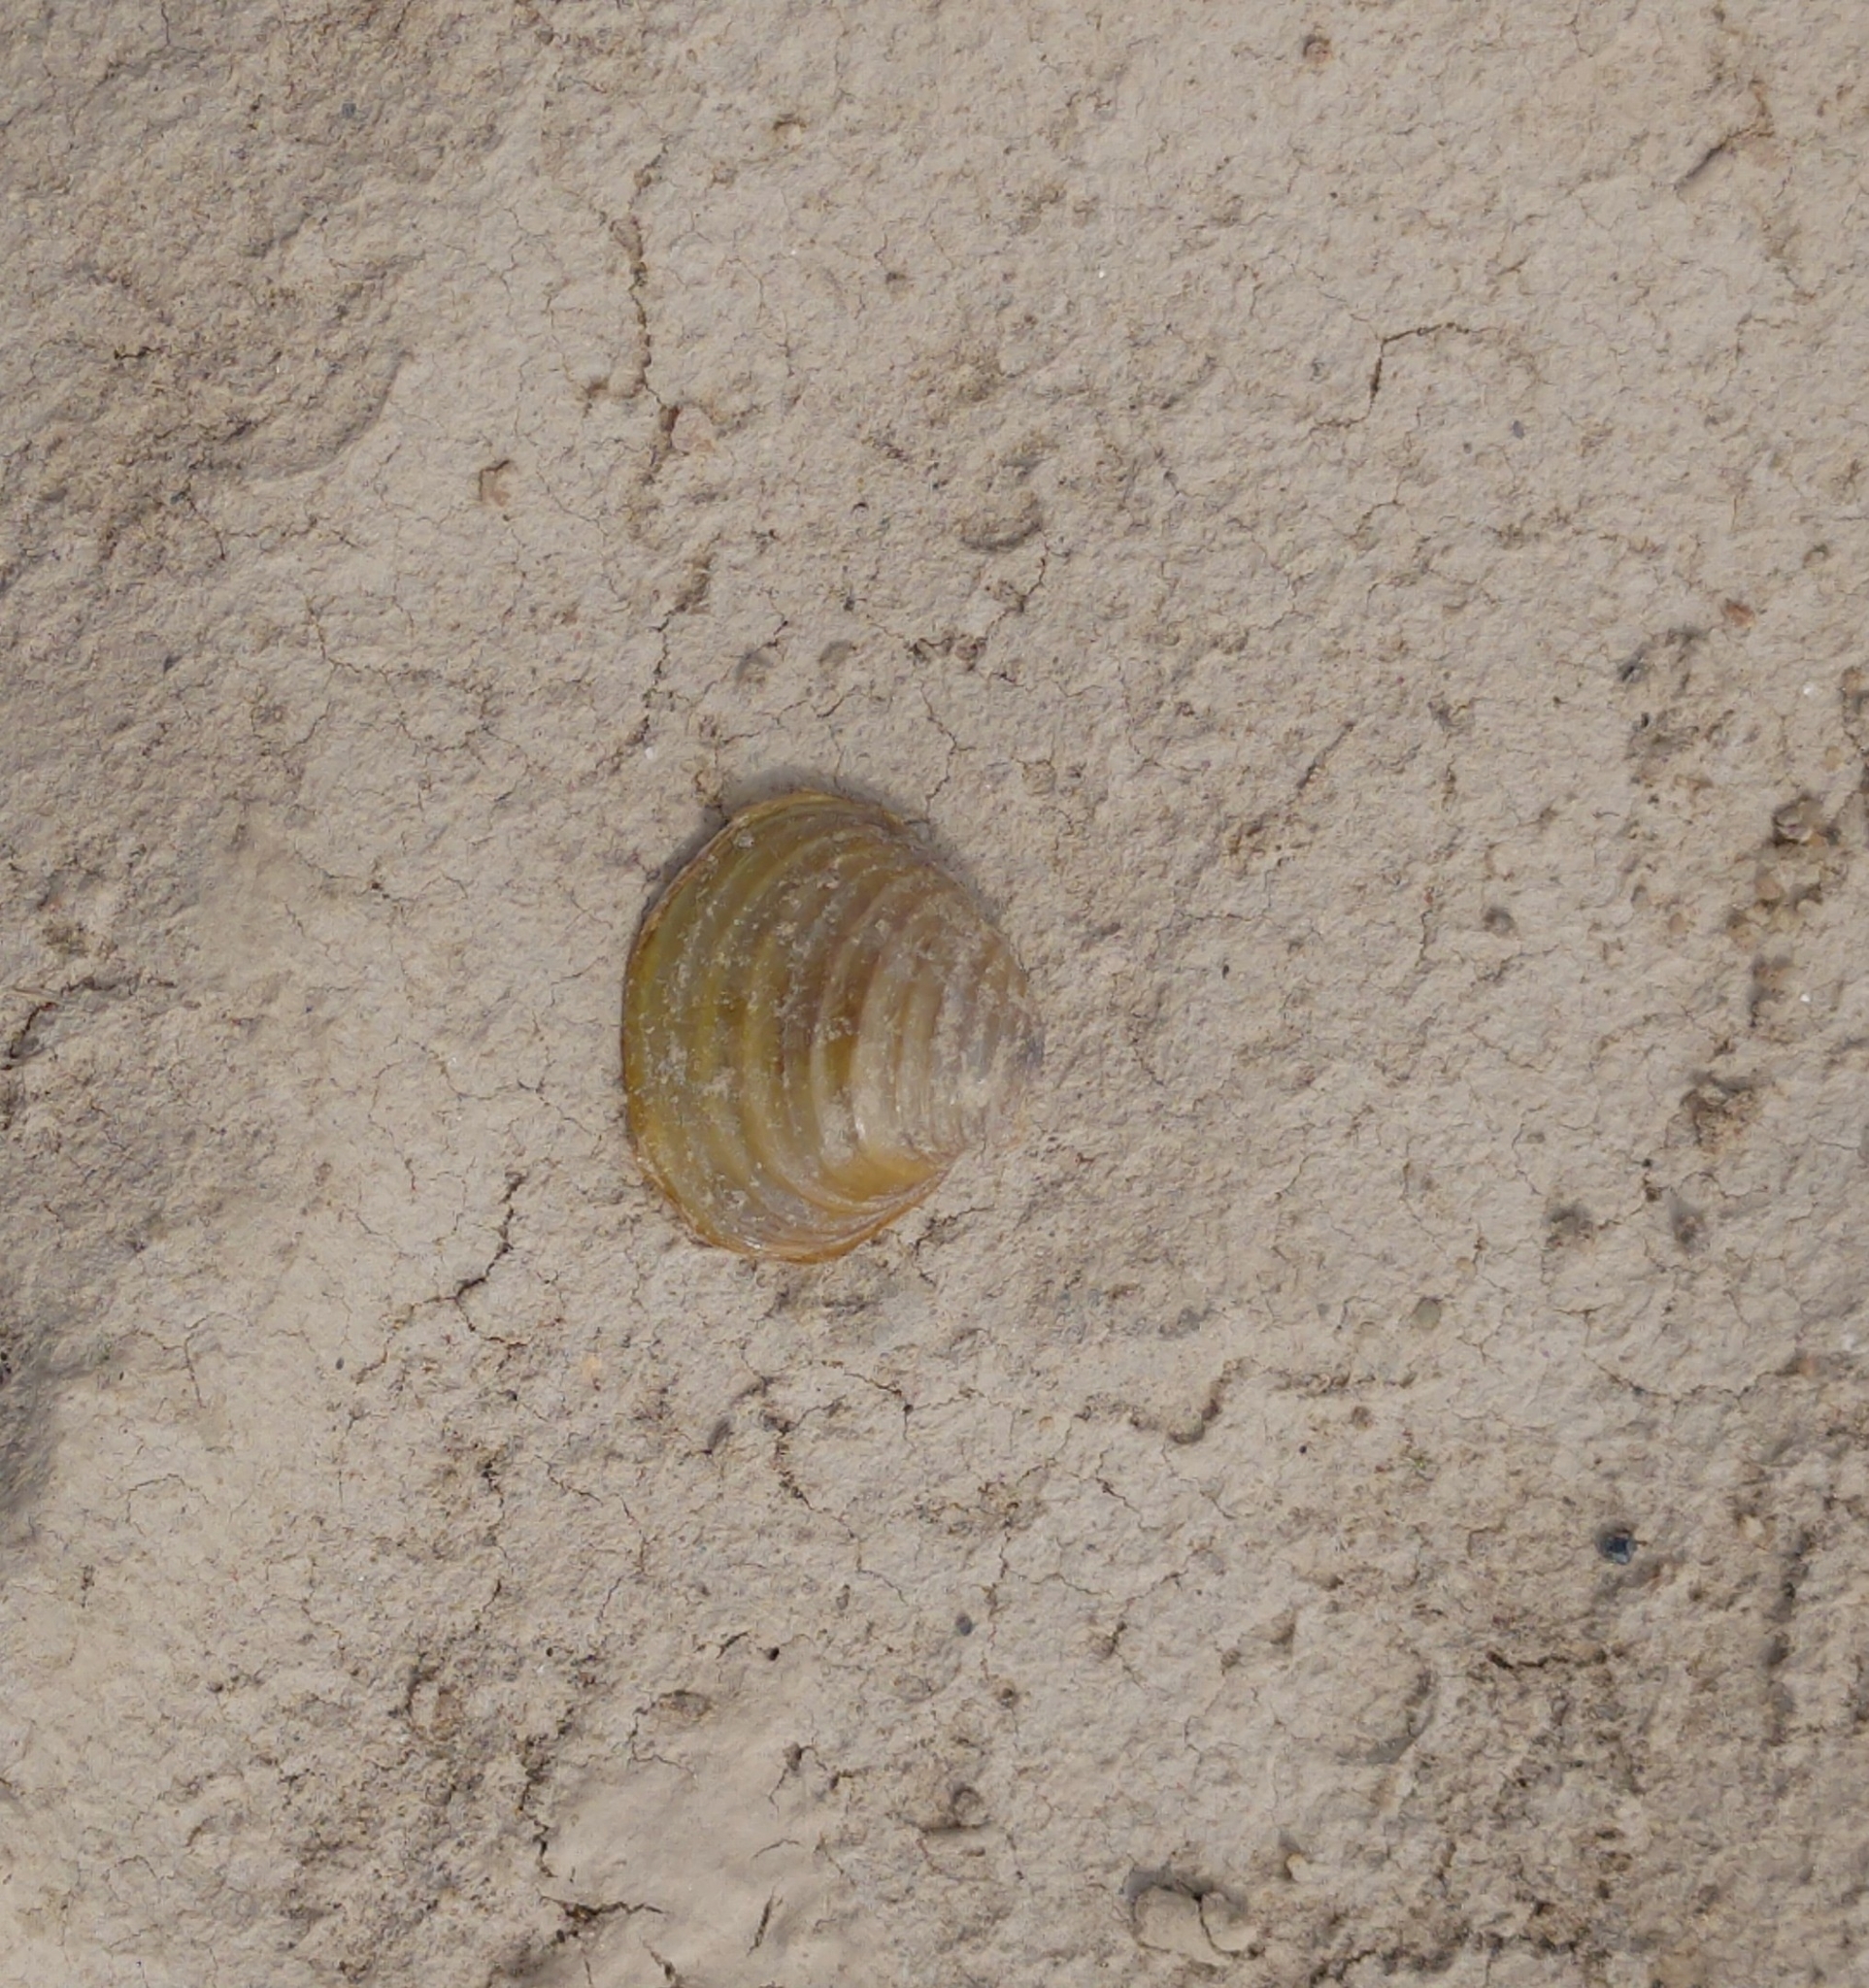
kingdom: Animalia
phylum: Mollusca
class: Bivalvia
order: Venerida
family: Cyrenidae
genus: Corbicula
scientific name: Corbicula fluminea
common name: Asian clam
